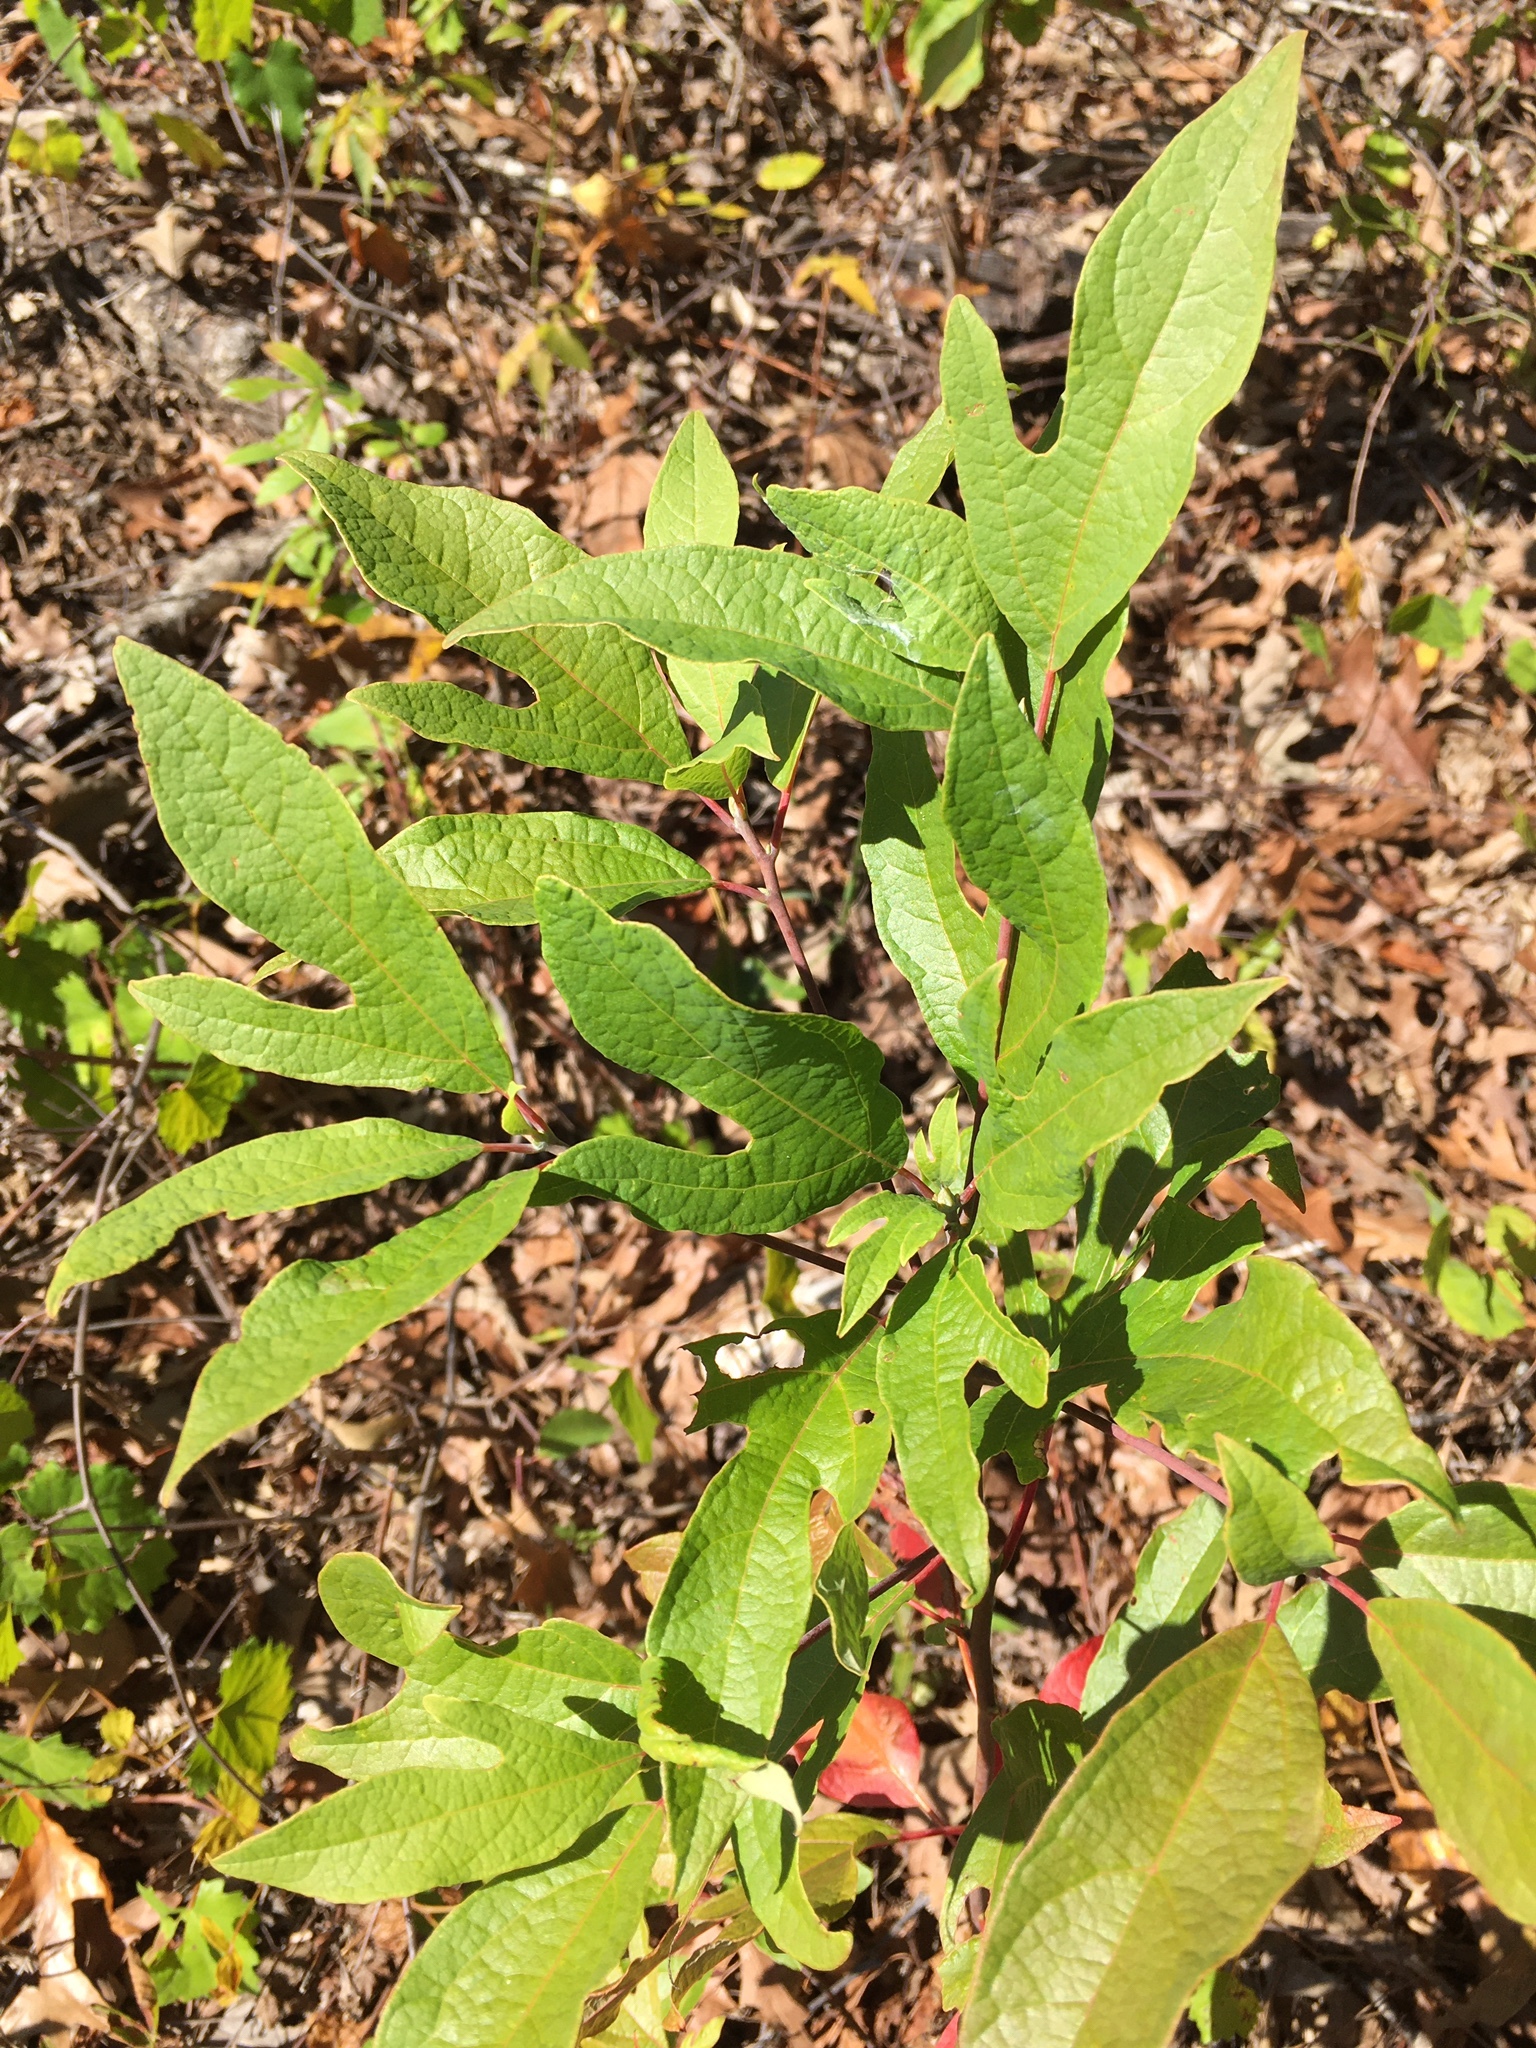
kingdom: Plantae
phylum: Tracheophyta
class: Magnoliopsida
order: Laurales
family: Lauraceae
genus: Sassafras
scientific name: Sassafras albidum
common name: Sassafras
